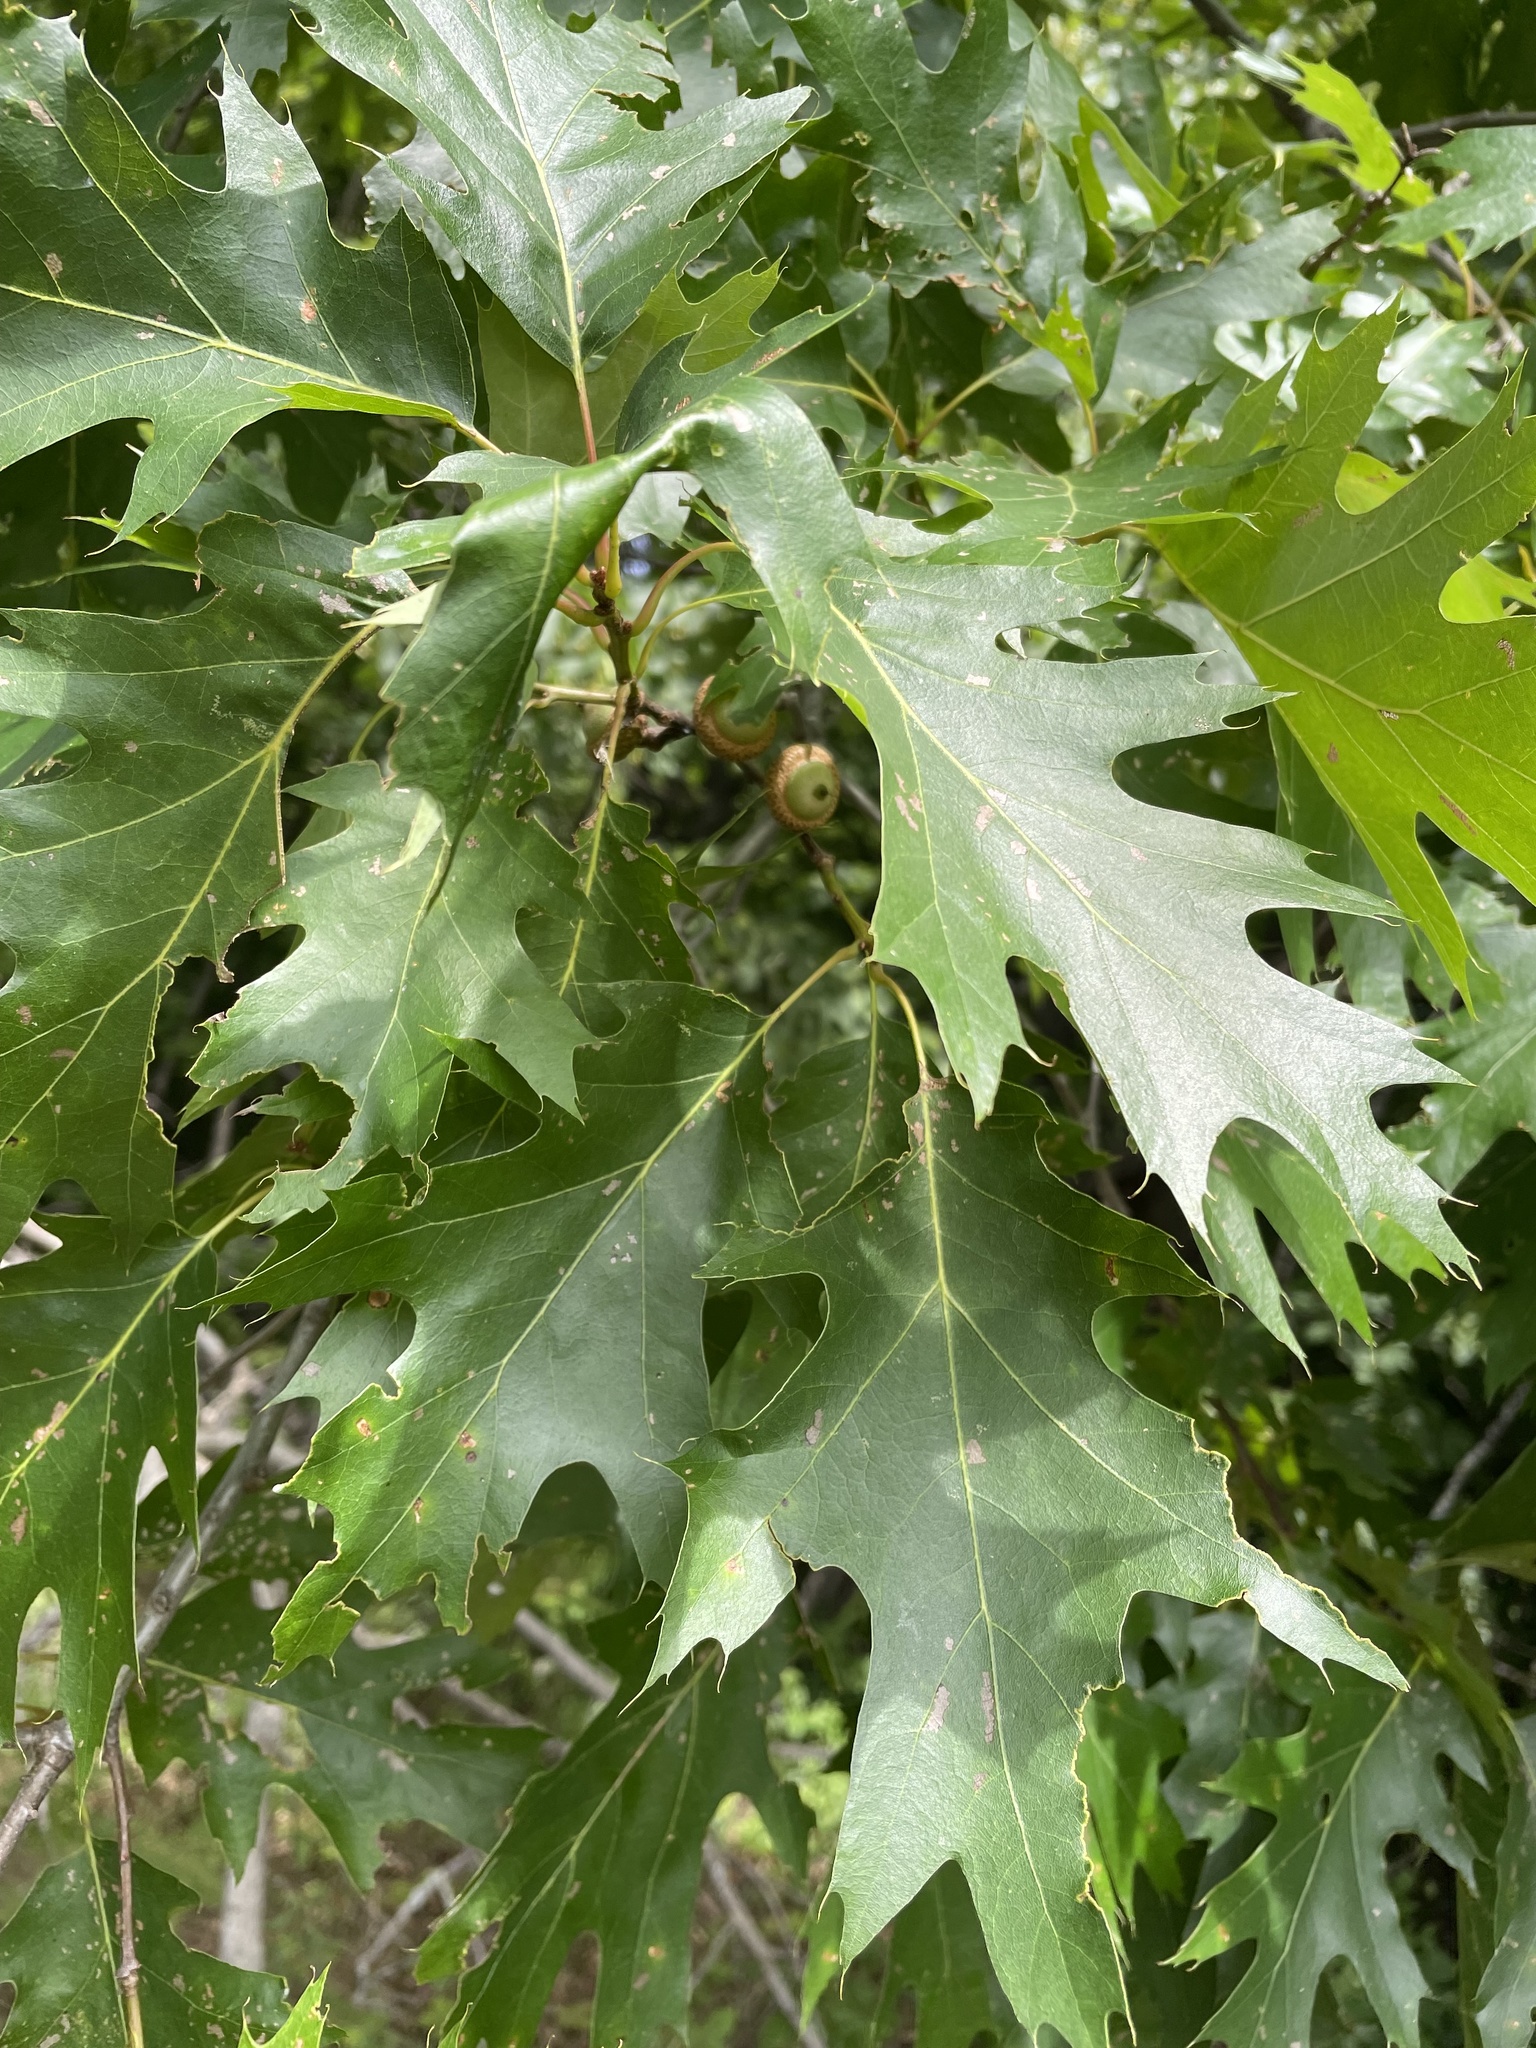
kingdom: Plantae
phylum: Tracheophyta
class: Magnoliopsida
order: Fagales
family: Fagaceae
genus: Quercus
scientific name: Quercus rubra
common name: Red oak
